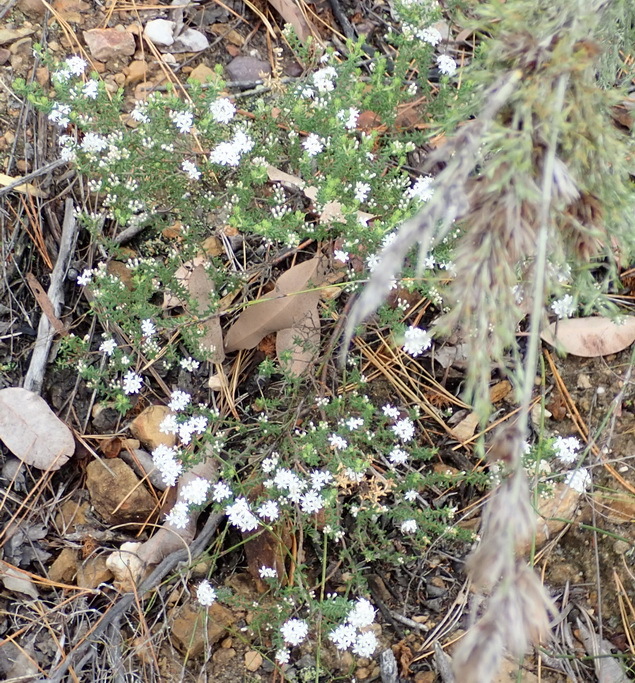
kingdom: Plantae
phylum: Tracheophyta
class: Magnoliopsida
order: Sapindales
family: Rutaceae
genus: Agathosma
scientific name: Agathosma mundtii
